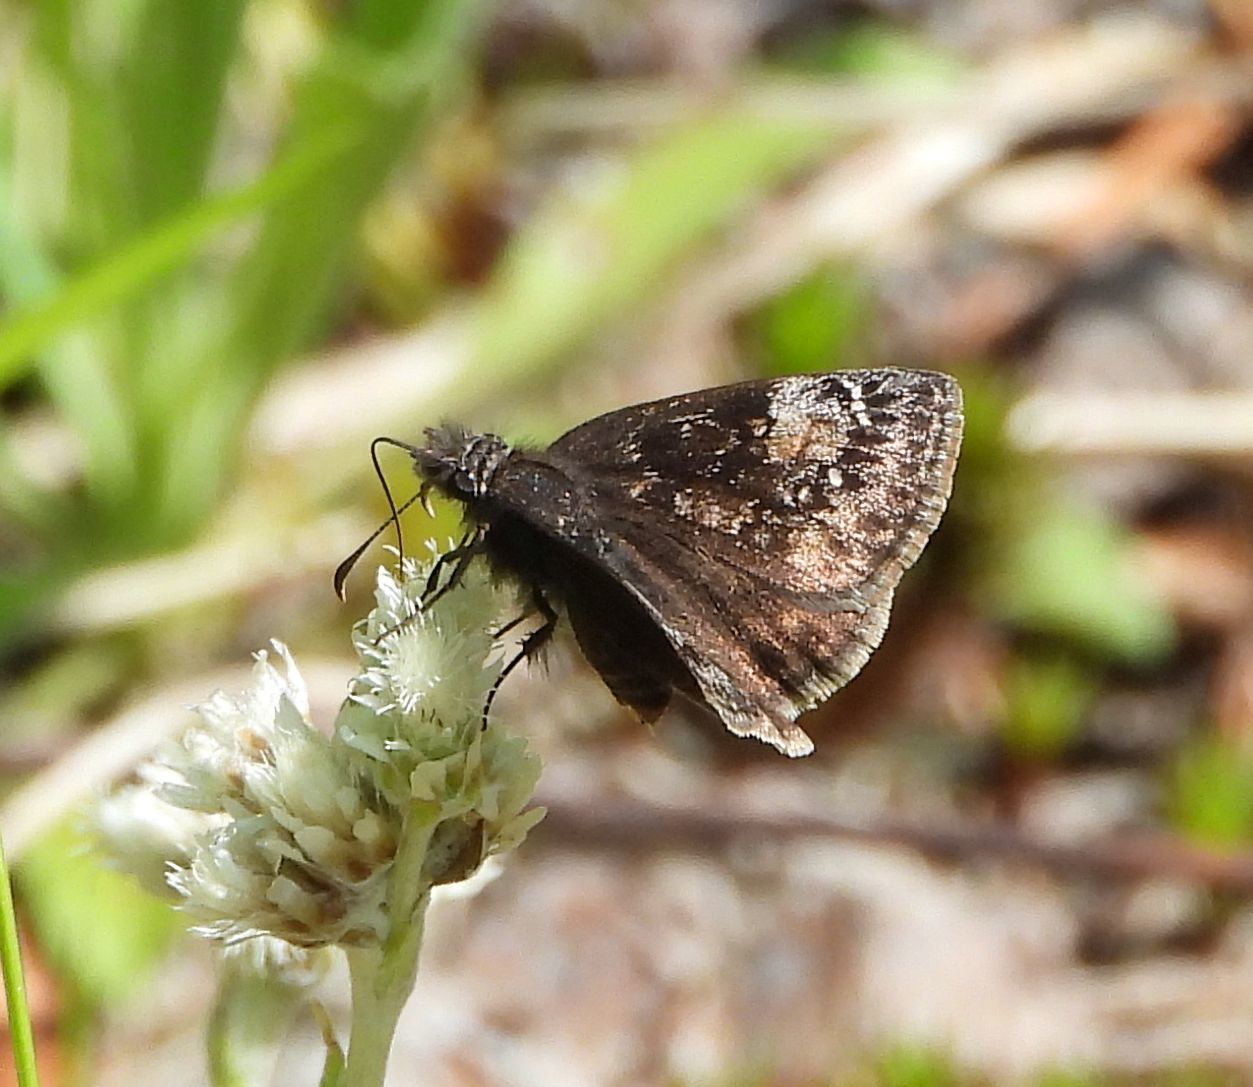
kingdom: Animalia
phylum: Arthropoda
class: Insecta
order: Lepidoptera
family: Hesperiidae
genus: Erynnis
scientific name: Erynnis lucilius
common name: Columbine duskywing
